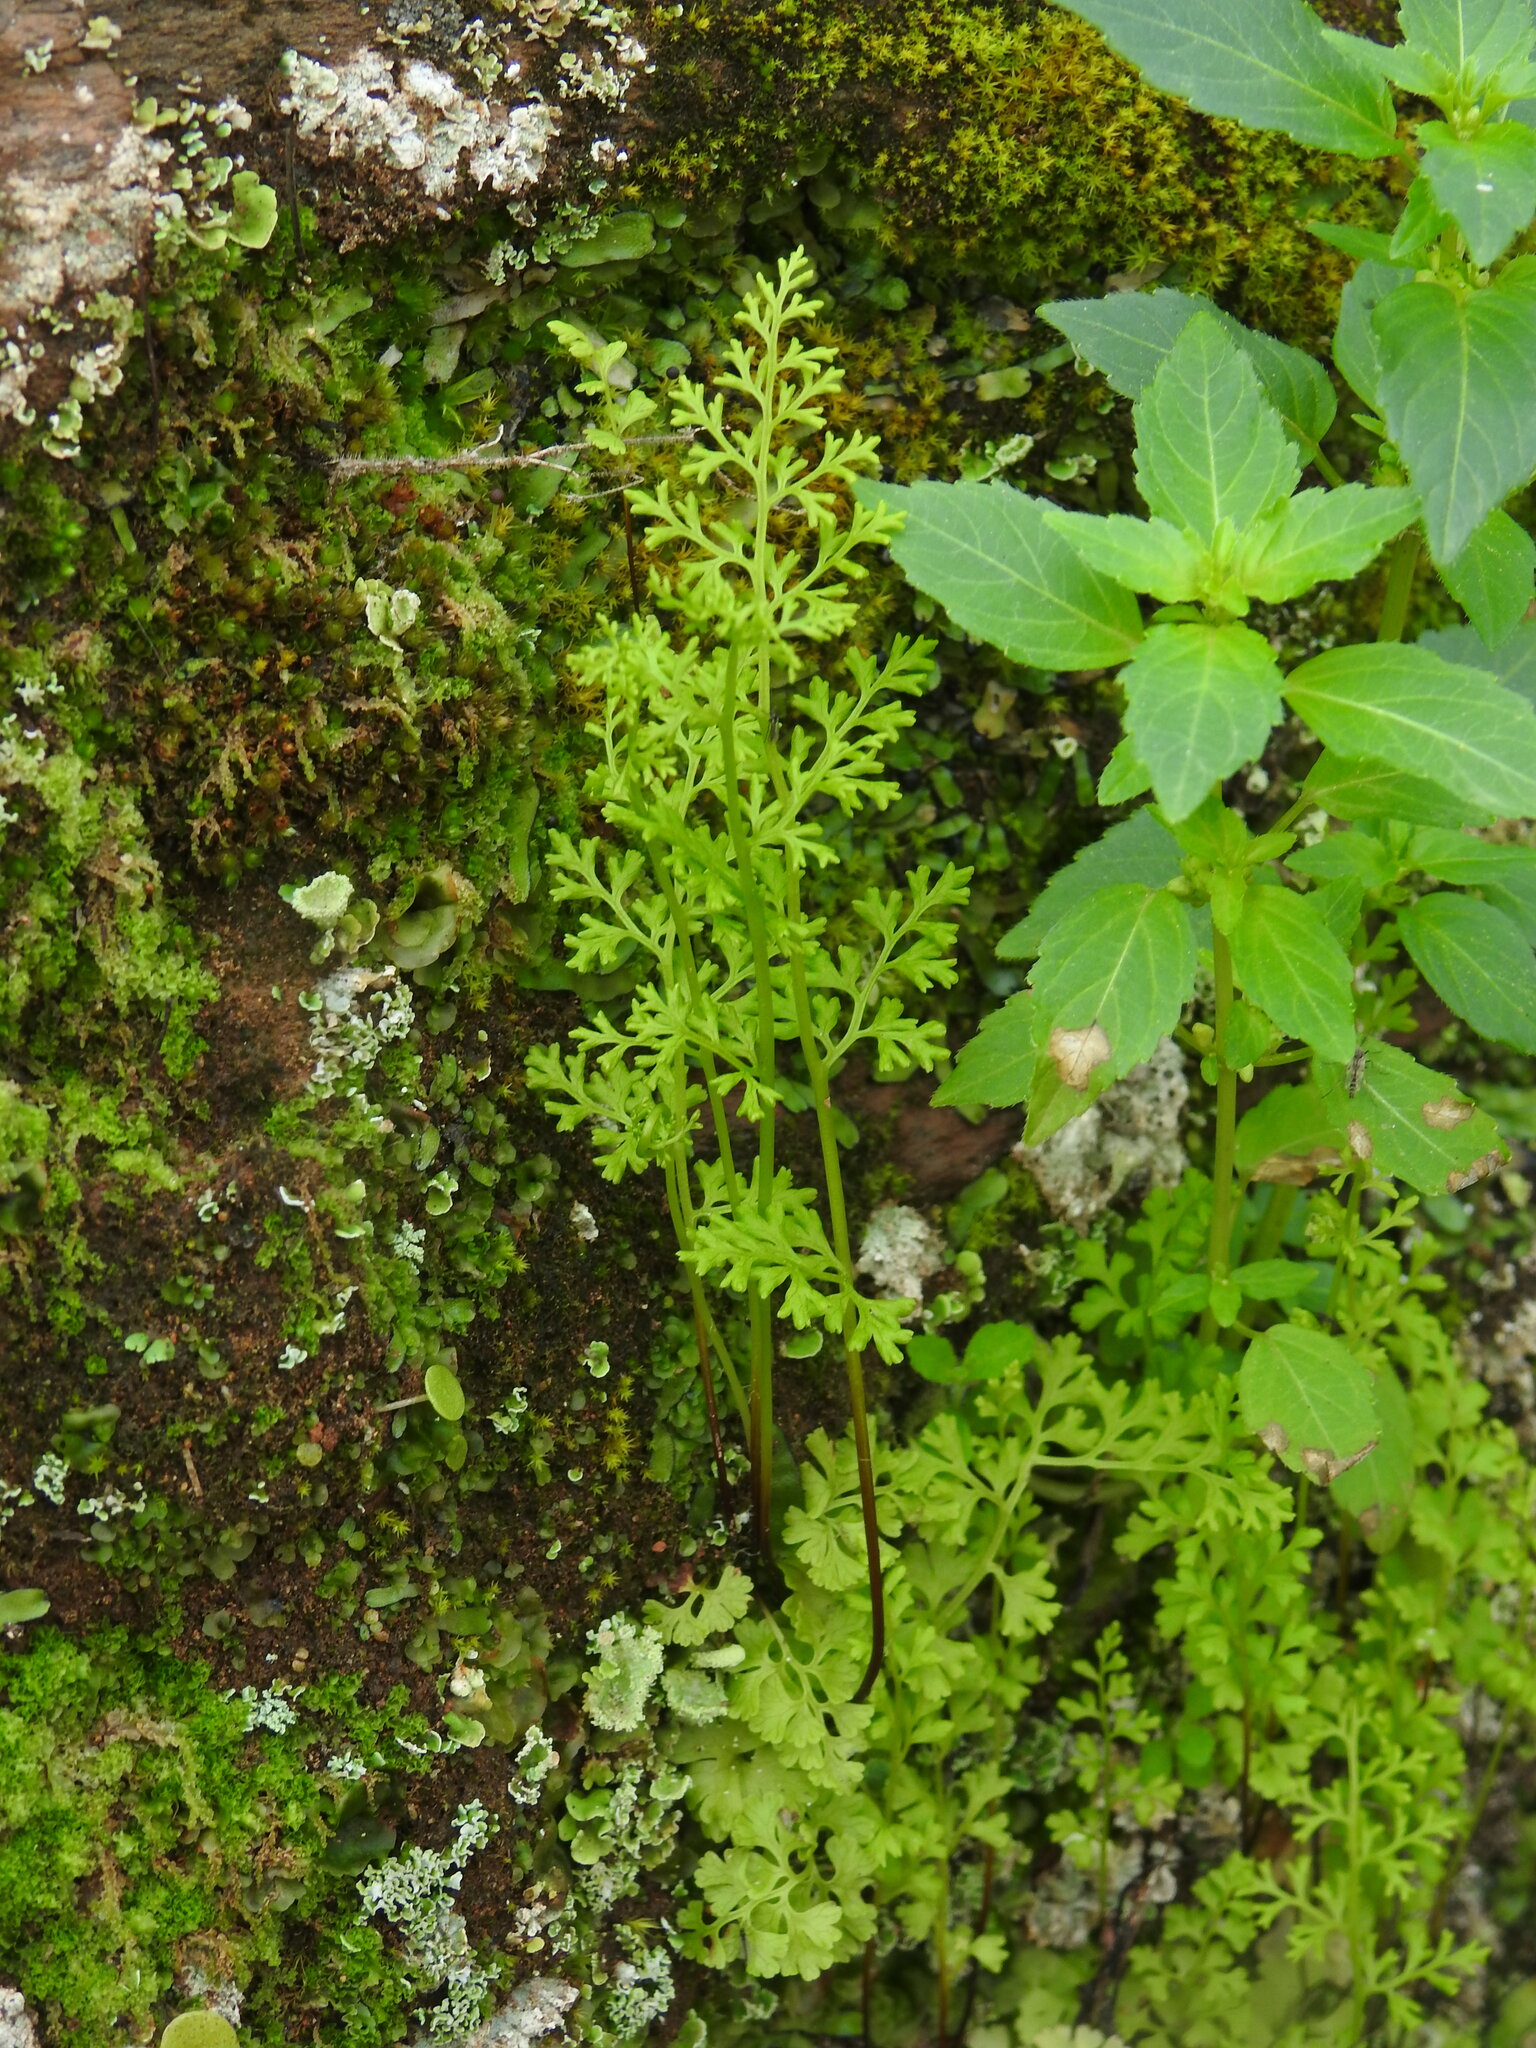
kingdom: Plantae
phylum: Tracheophyta
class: Polypodiopsida
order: Polypodiales
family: Pteridaceae
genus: Anogramma
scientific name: Anogramma leptophylla
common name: Jersey fern
